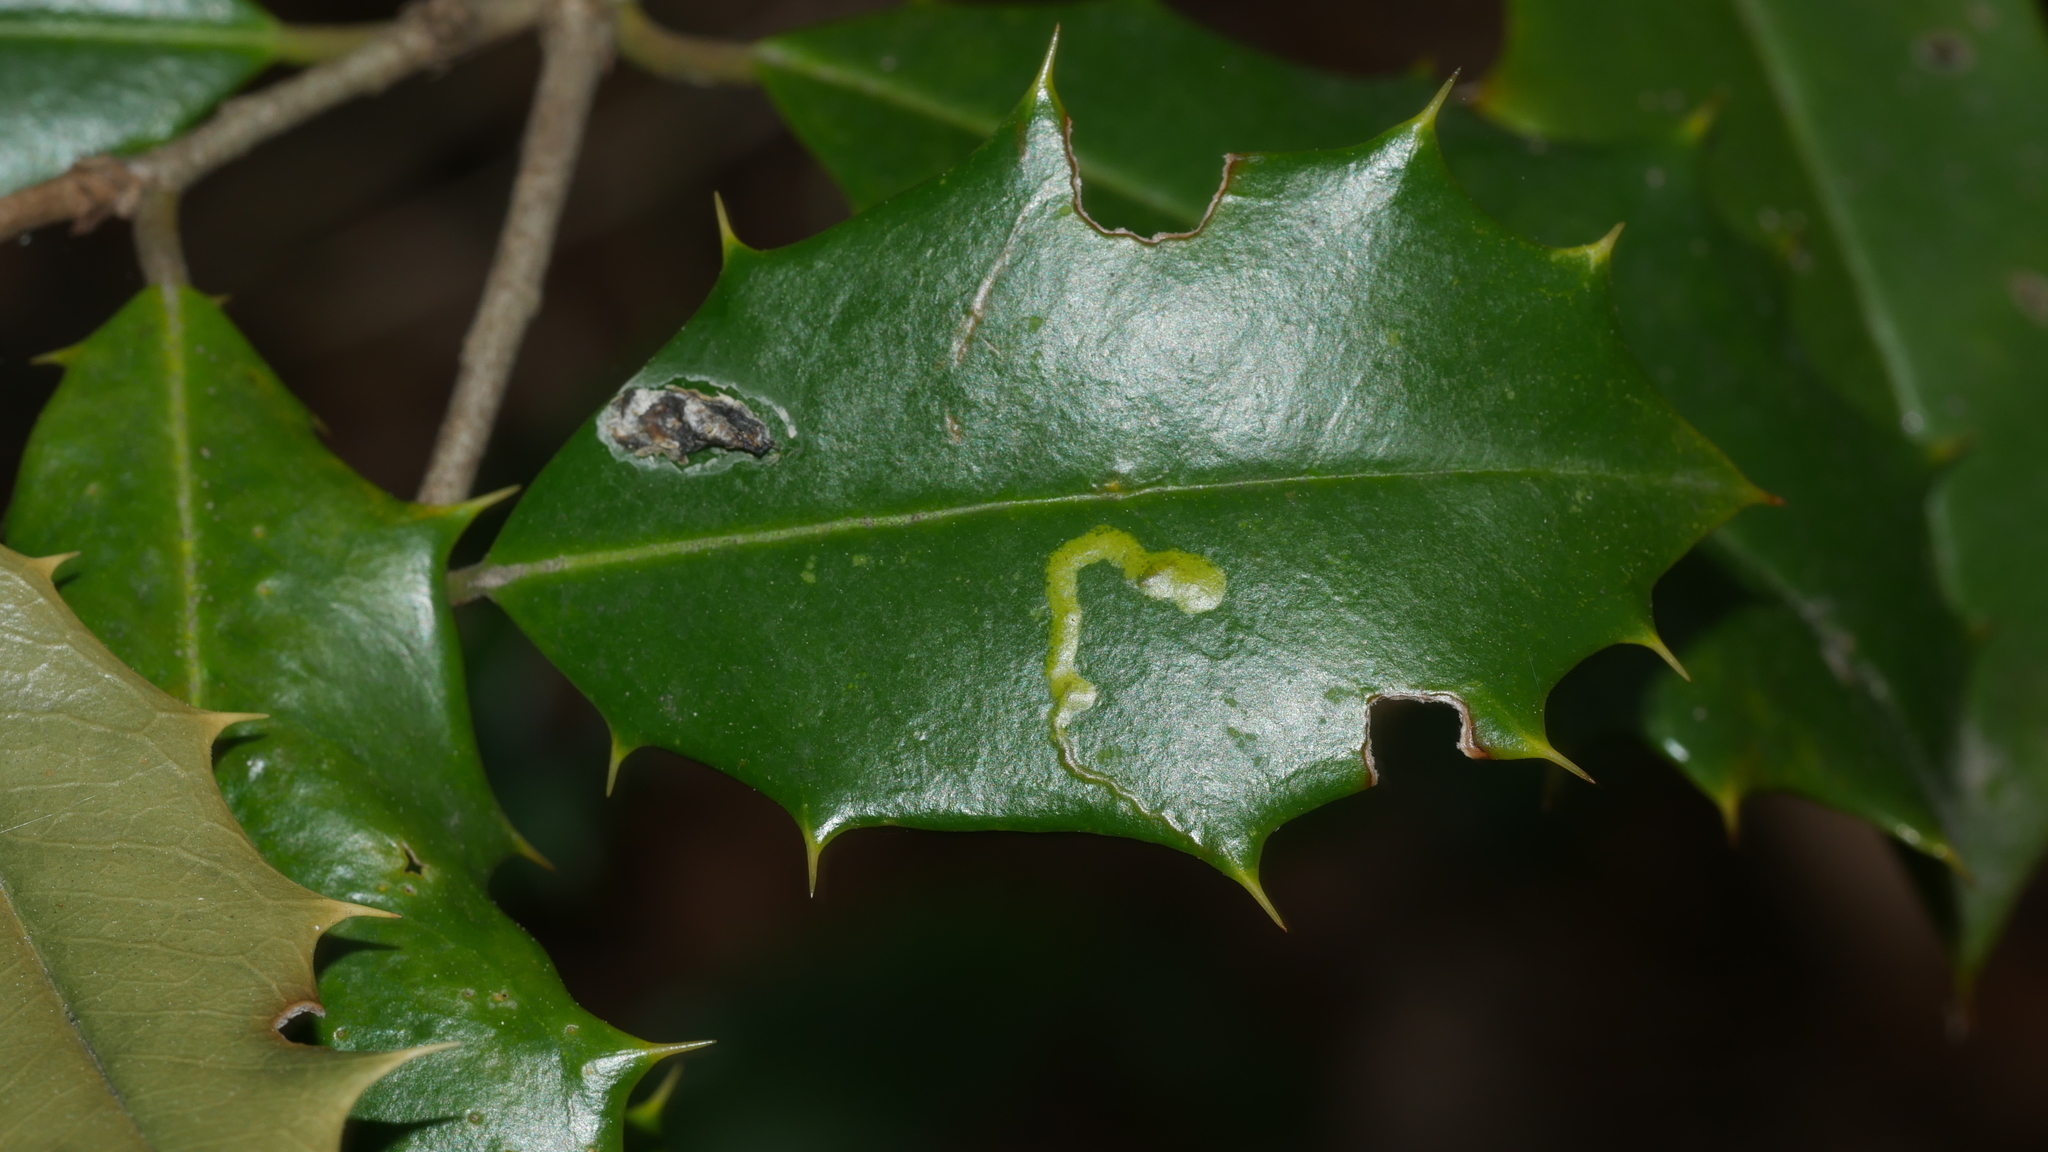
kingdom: Animalia
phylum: Arthropoda
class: Insecta
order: Diptera
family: Agromyzidae
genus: Phytomyza
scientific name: Phytomyza ilicicola
